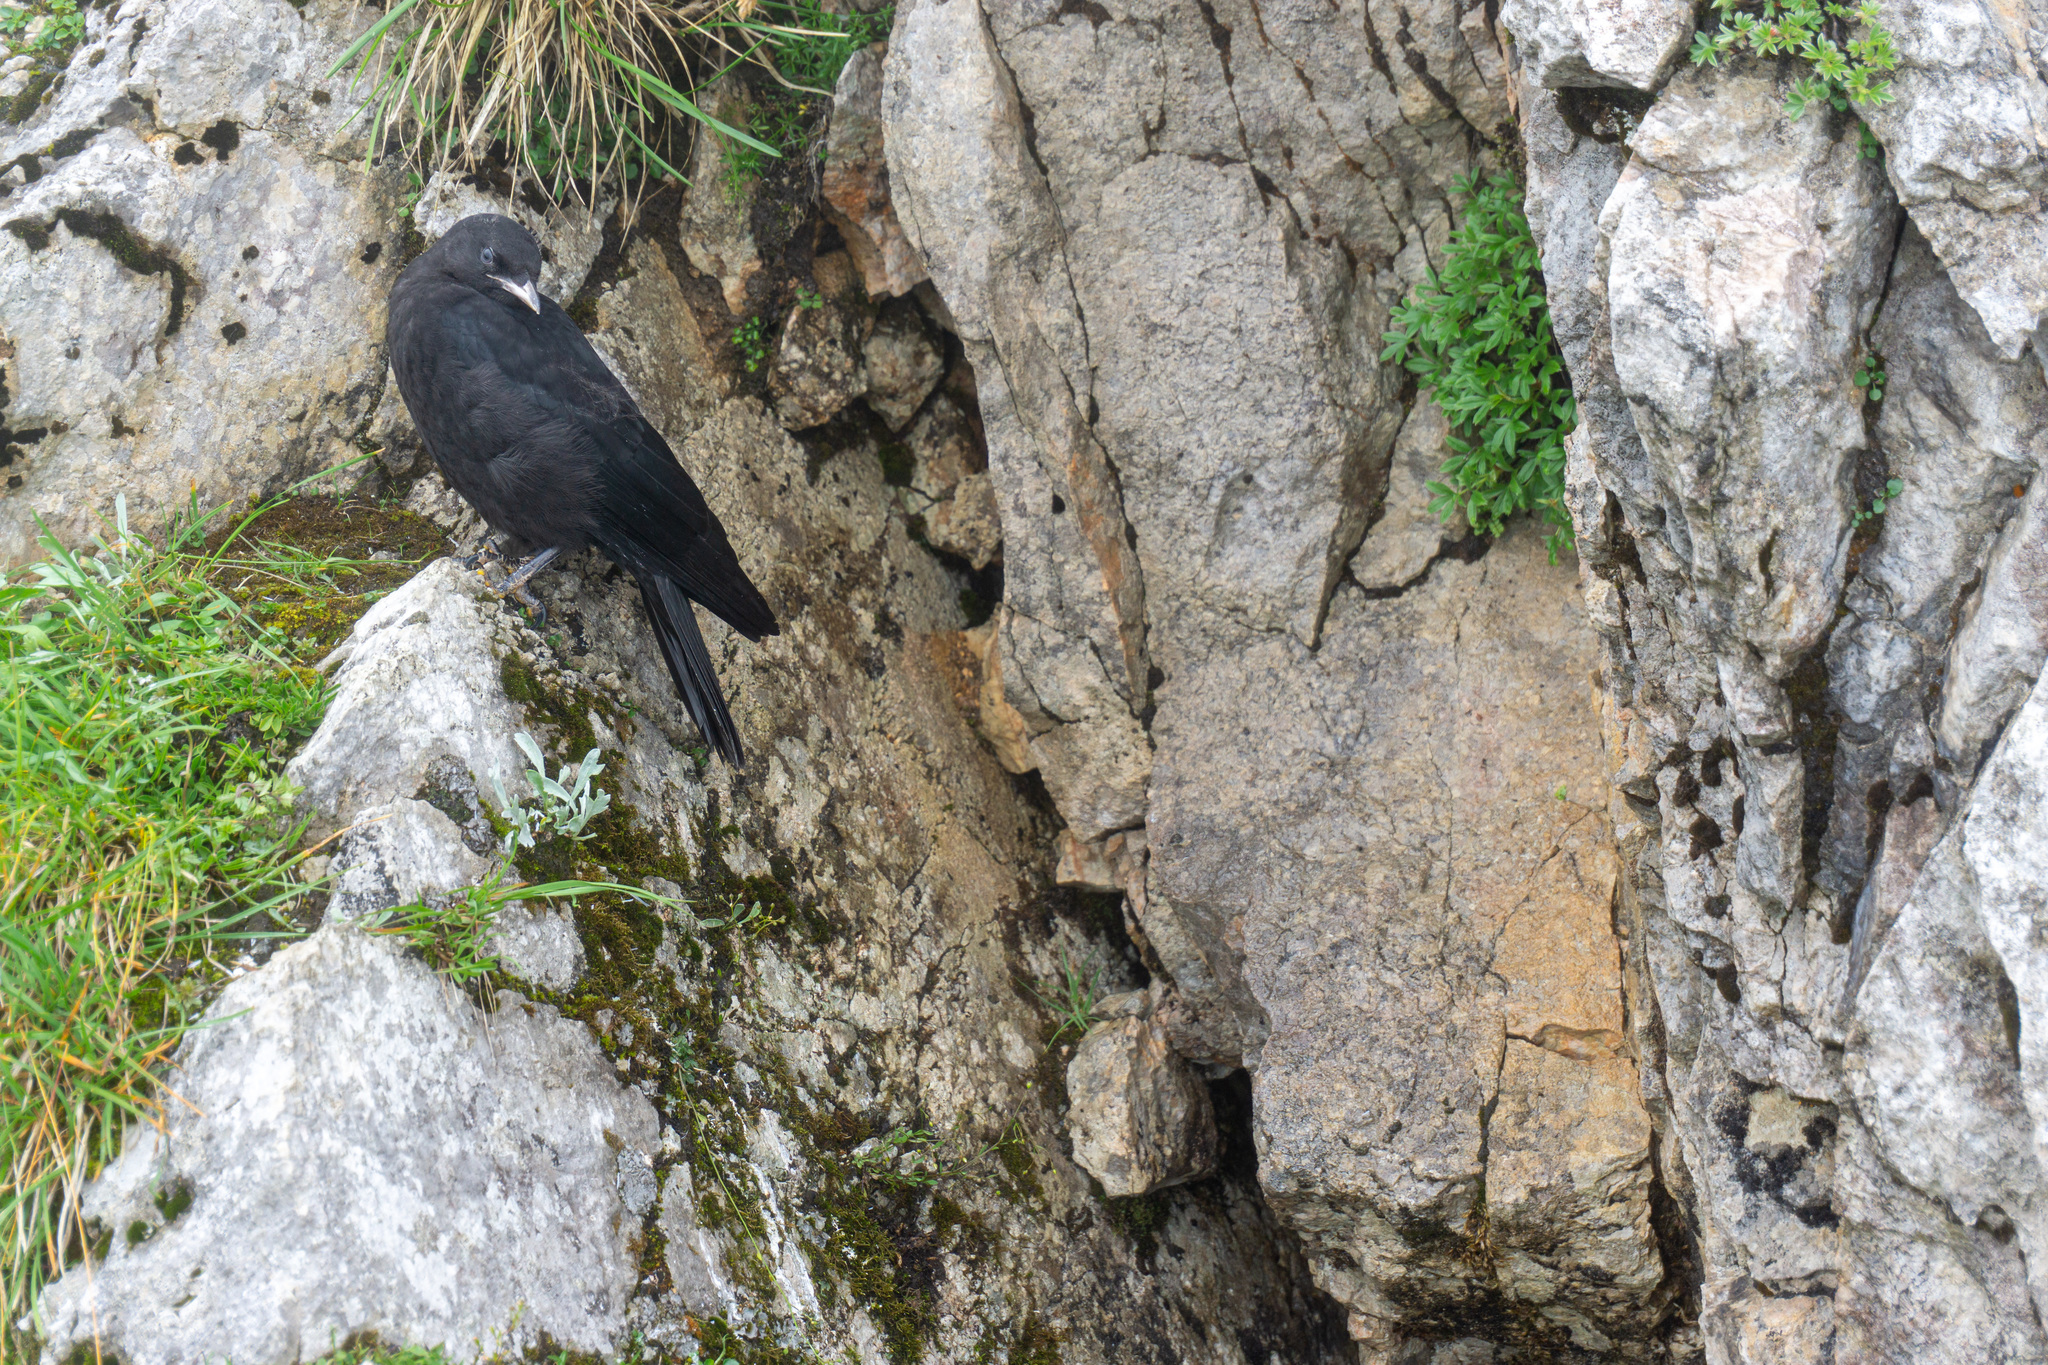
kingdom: Animalia
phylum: Chordata
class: Aves
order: Passeriformes
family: Corvidae
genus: Pyrrhocorax
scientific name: Pyrrhocorax graculus
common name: Alpine chough
